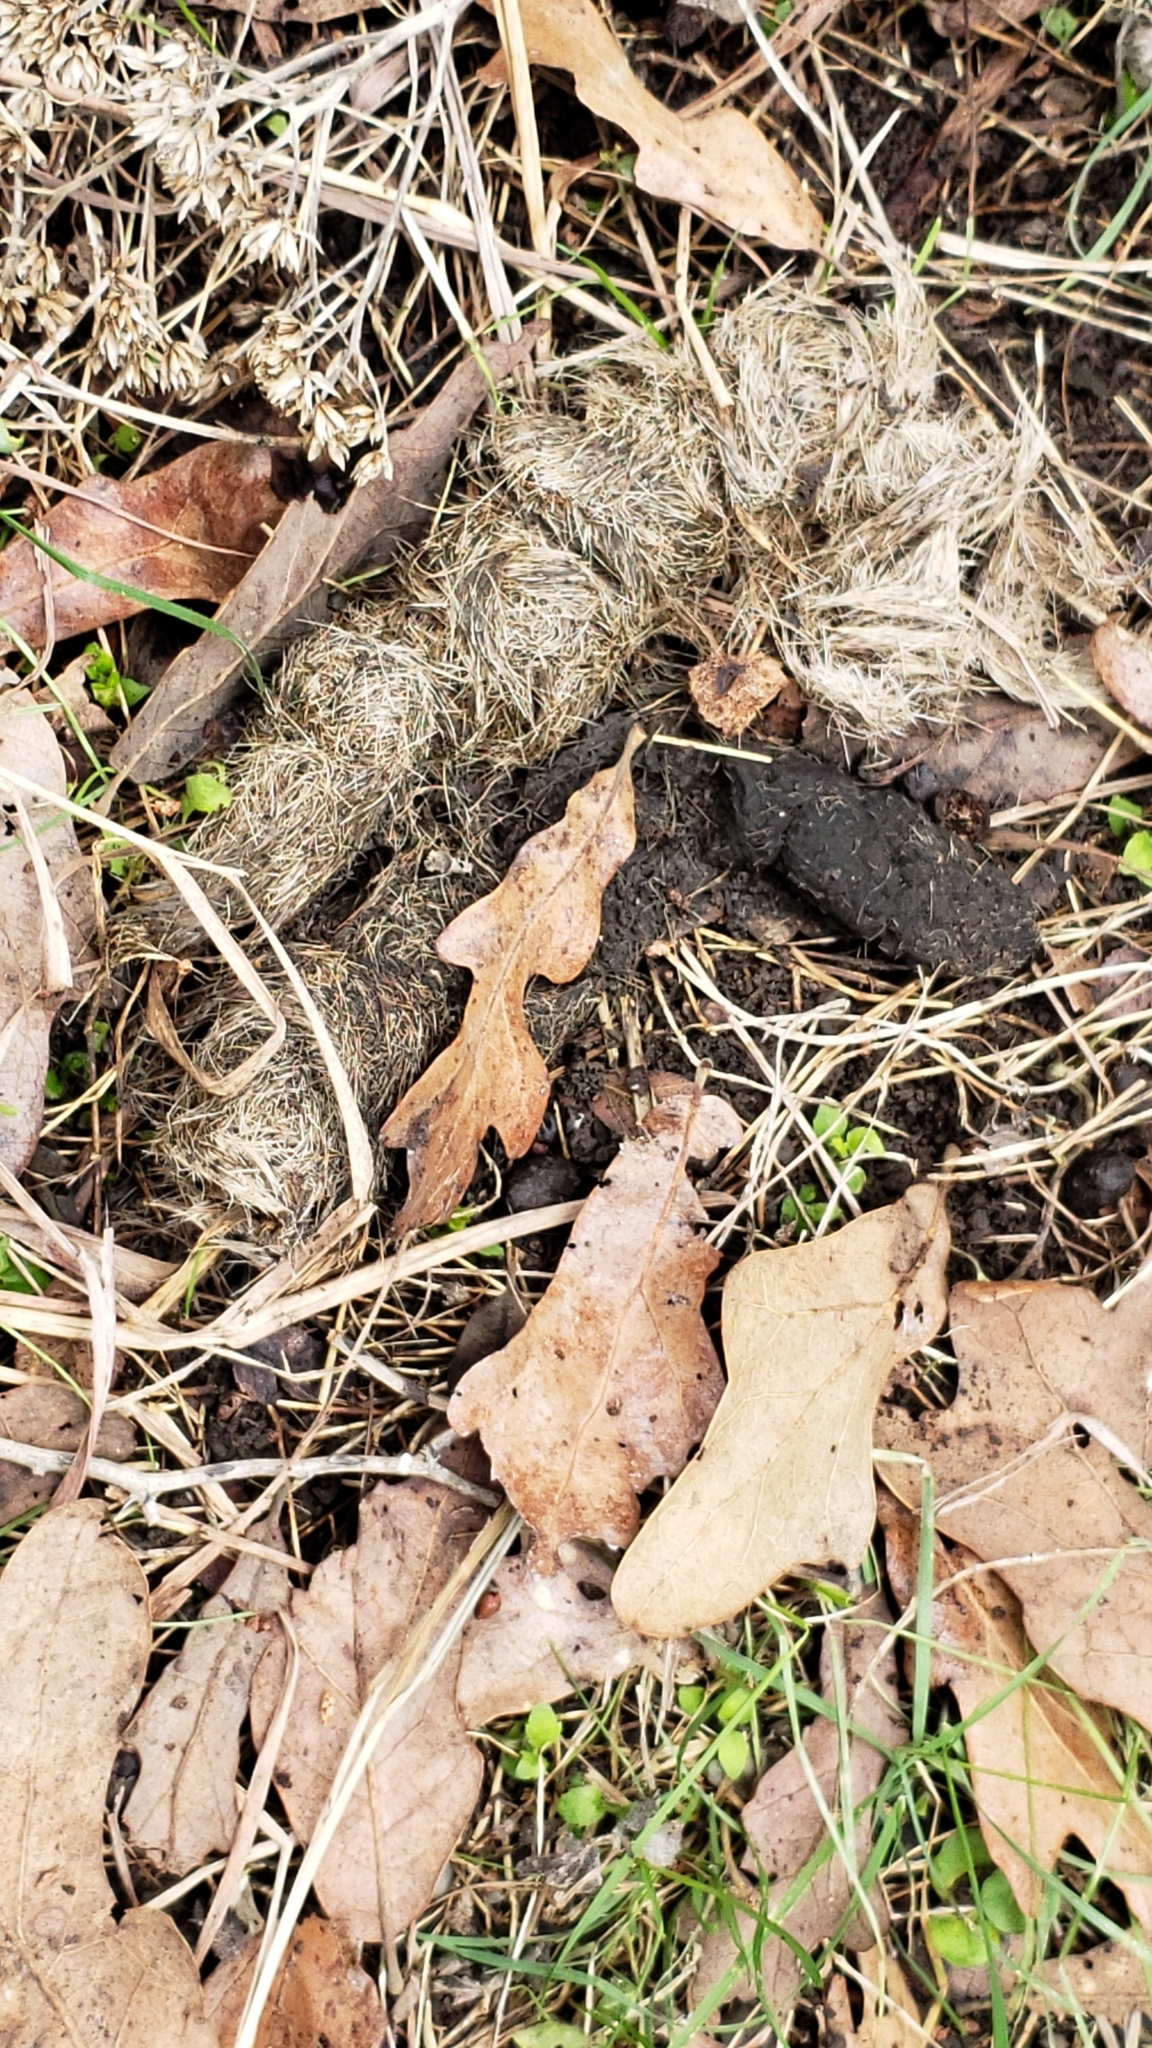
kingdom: Animalia
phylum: Chordata
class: Mammalia
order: Carnivora
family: Canidae
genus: Canis
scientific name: Canis latrans
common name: Coyote
